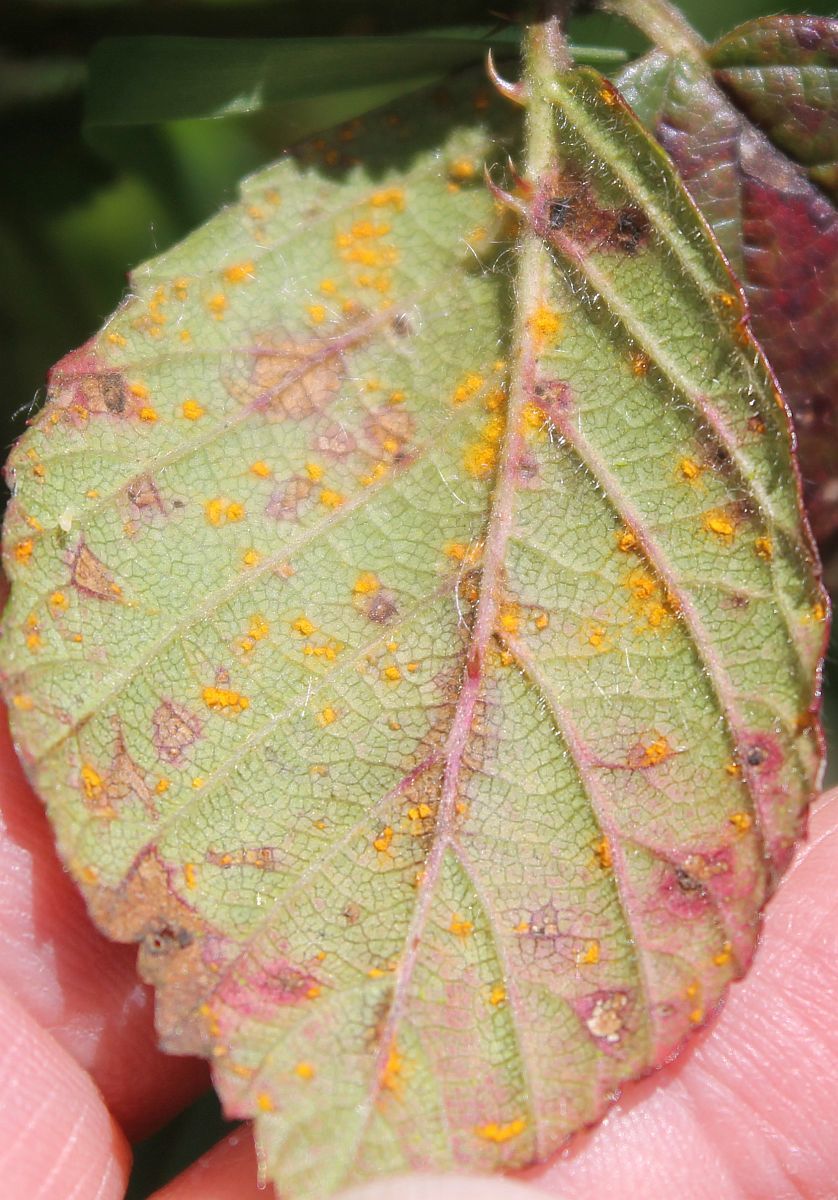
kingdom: Fungi
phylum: Basidiomycota
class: Pucciniomycetes
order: Pucciniales
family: Phragmidiaceae
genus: Phragmidium
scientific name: Phragmidium violaceum
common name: Violet bramble rust
